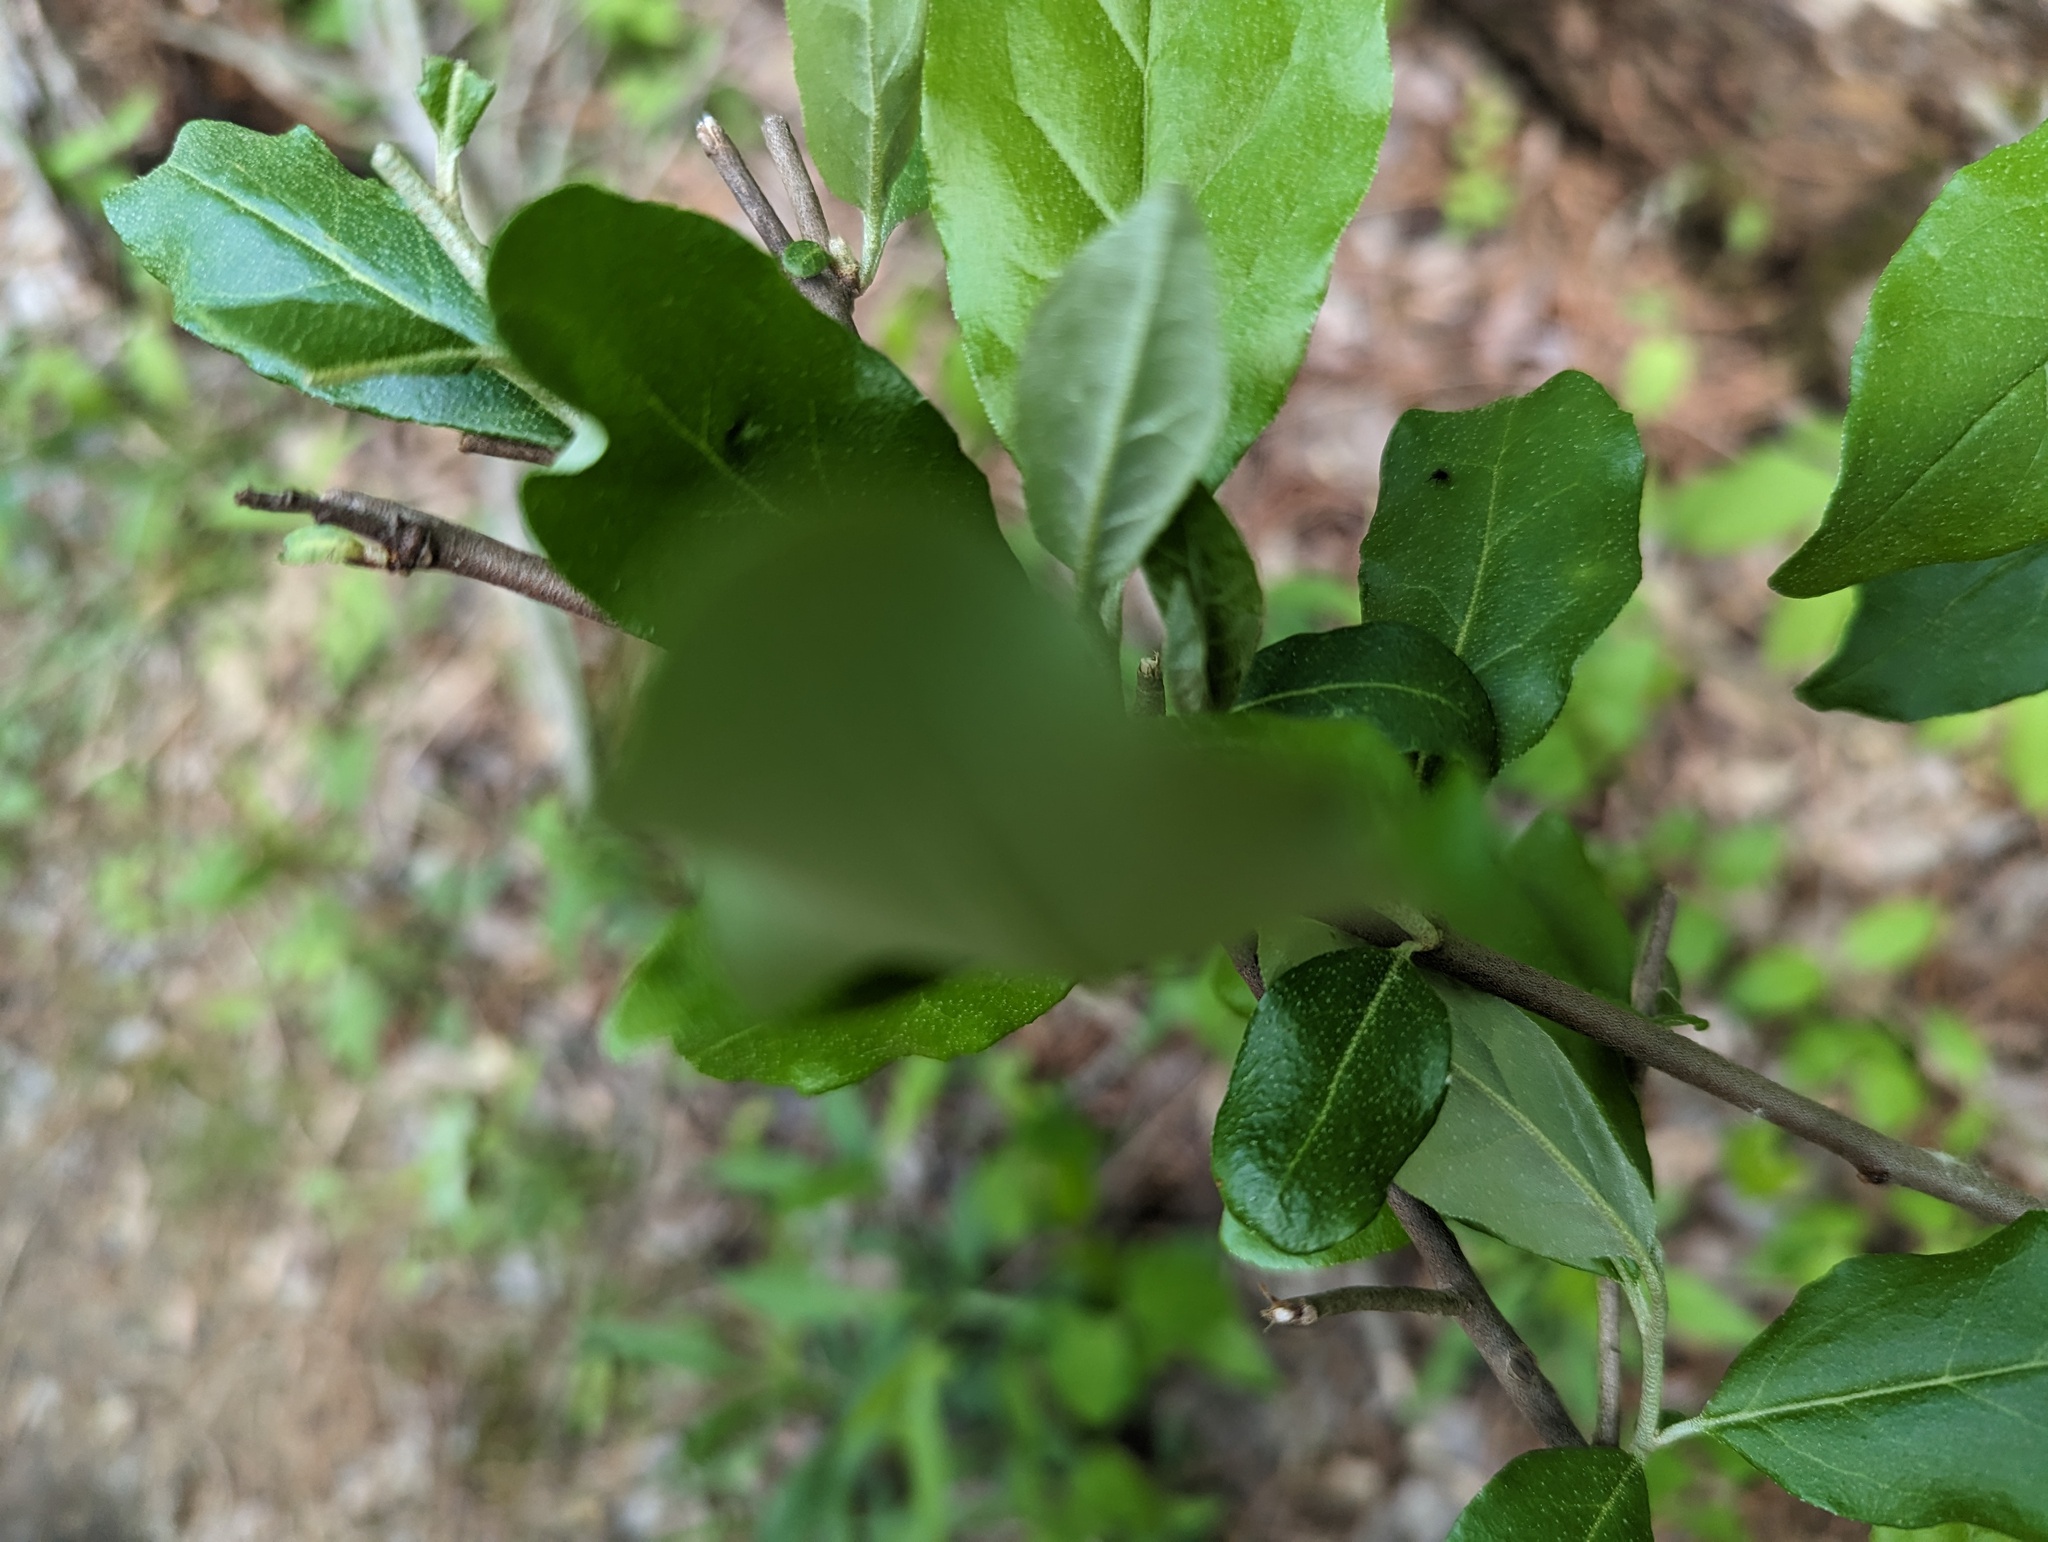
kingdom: Plantae
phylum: Tracheophyta
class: Magnoliopsida
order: Rosales
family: Elaeagnaceae
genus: Elaeagnus
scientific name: Elaeagnus umbellata
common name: Autumn olive
